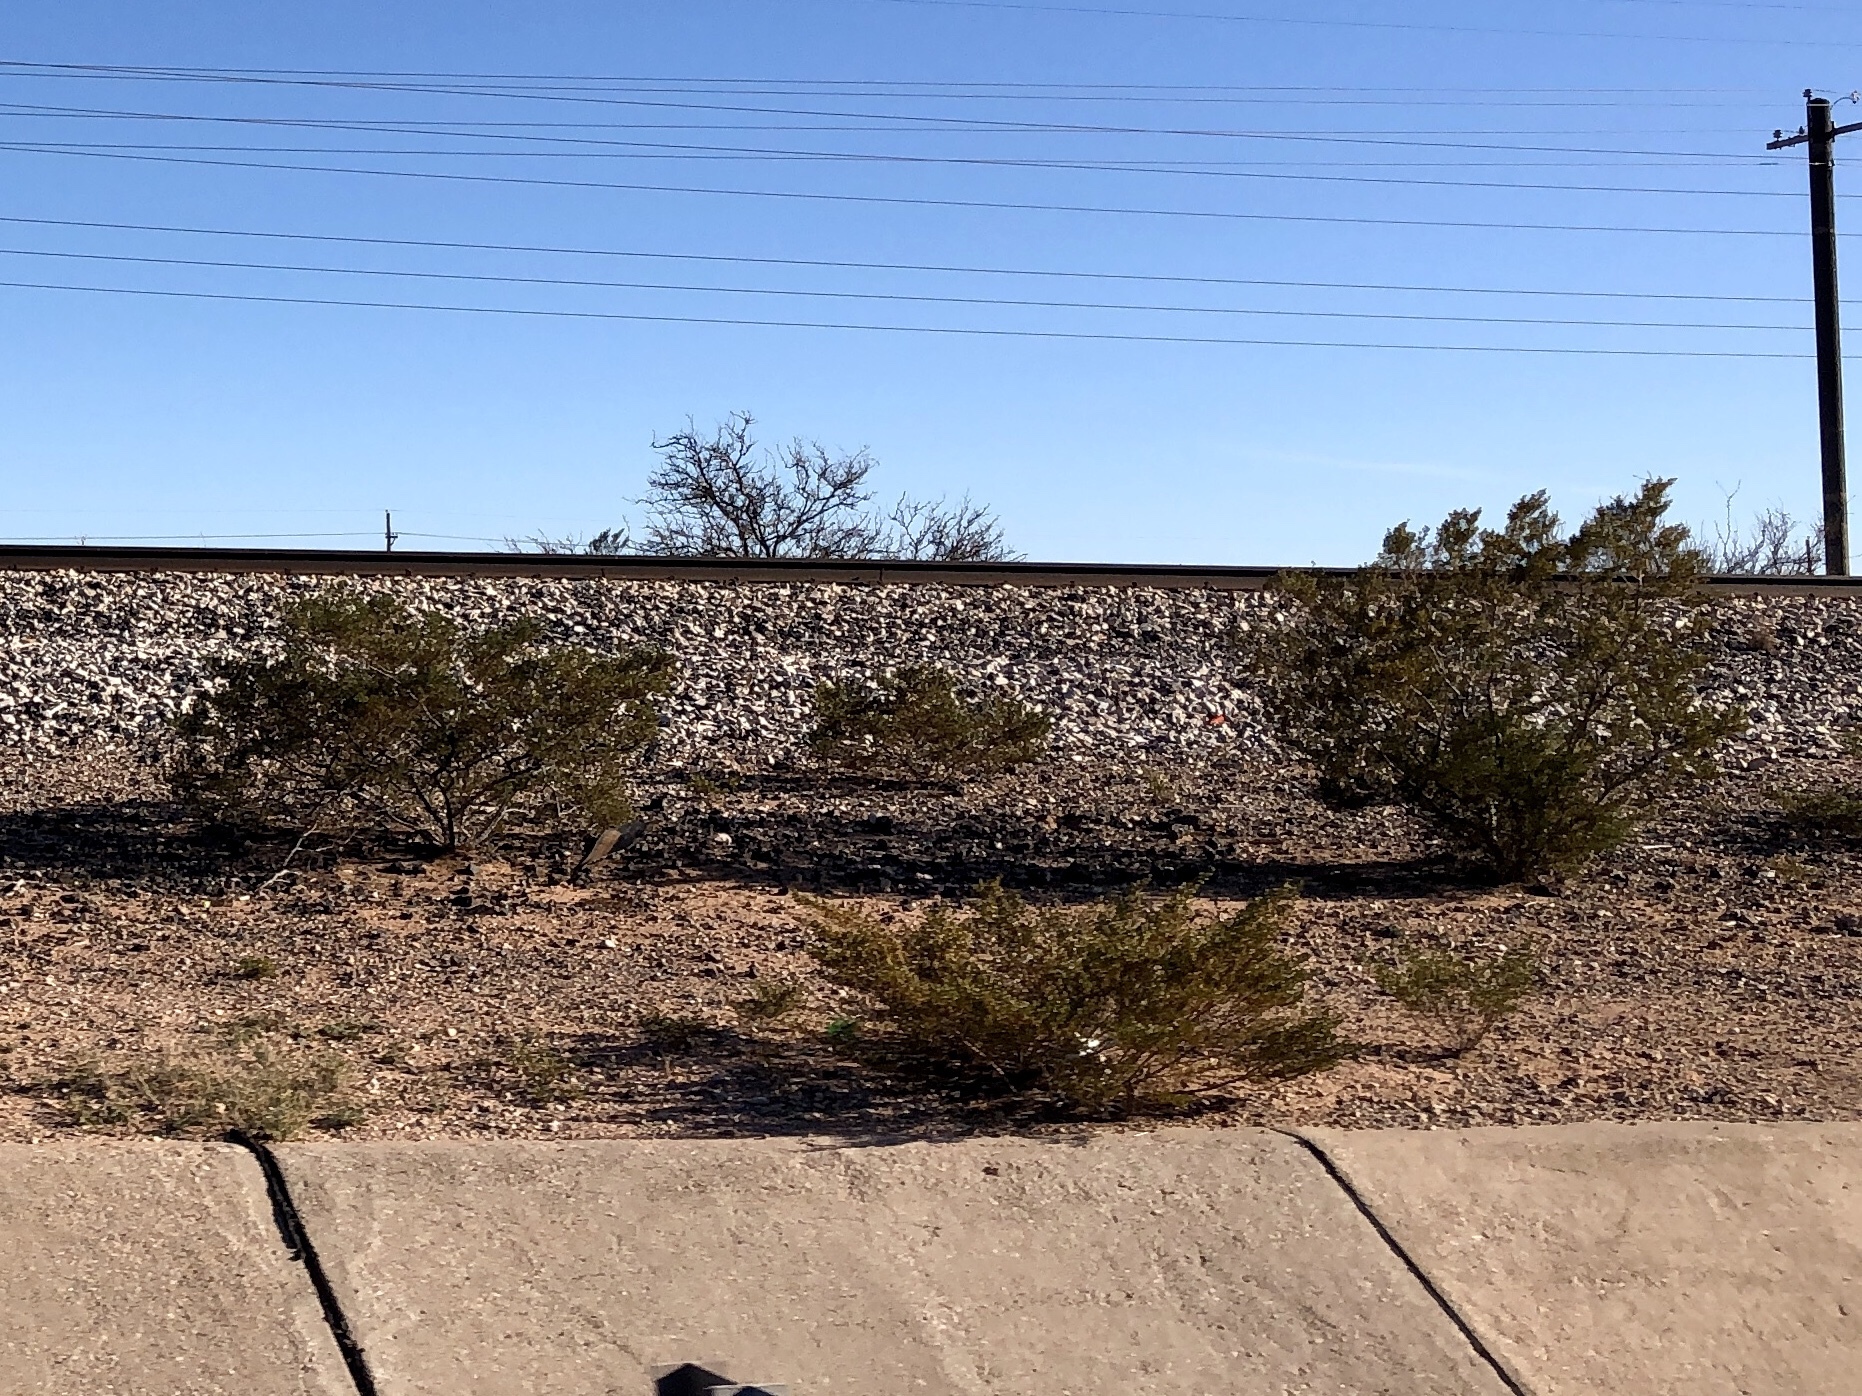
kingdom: Plantae
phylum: Tracheophyta
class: Magnoliopsida
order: Zygophyllales
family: Zygophyllaceae
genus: Larrea
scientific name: Larrea tridentata
